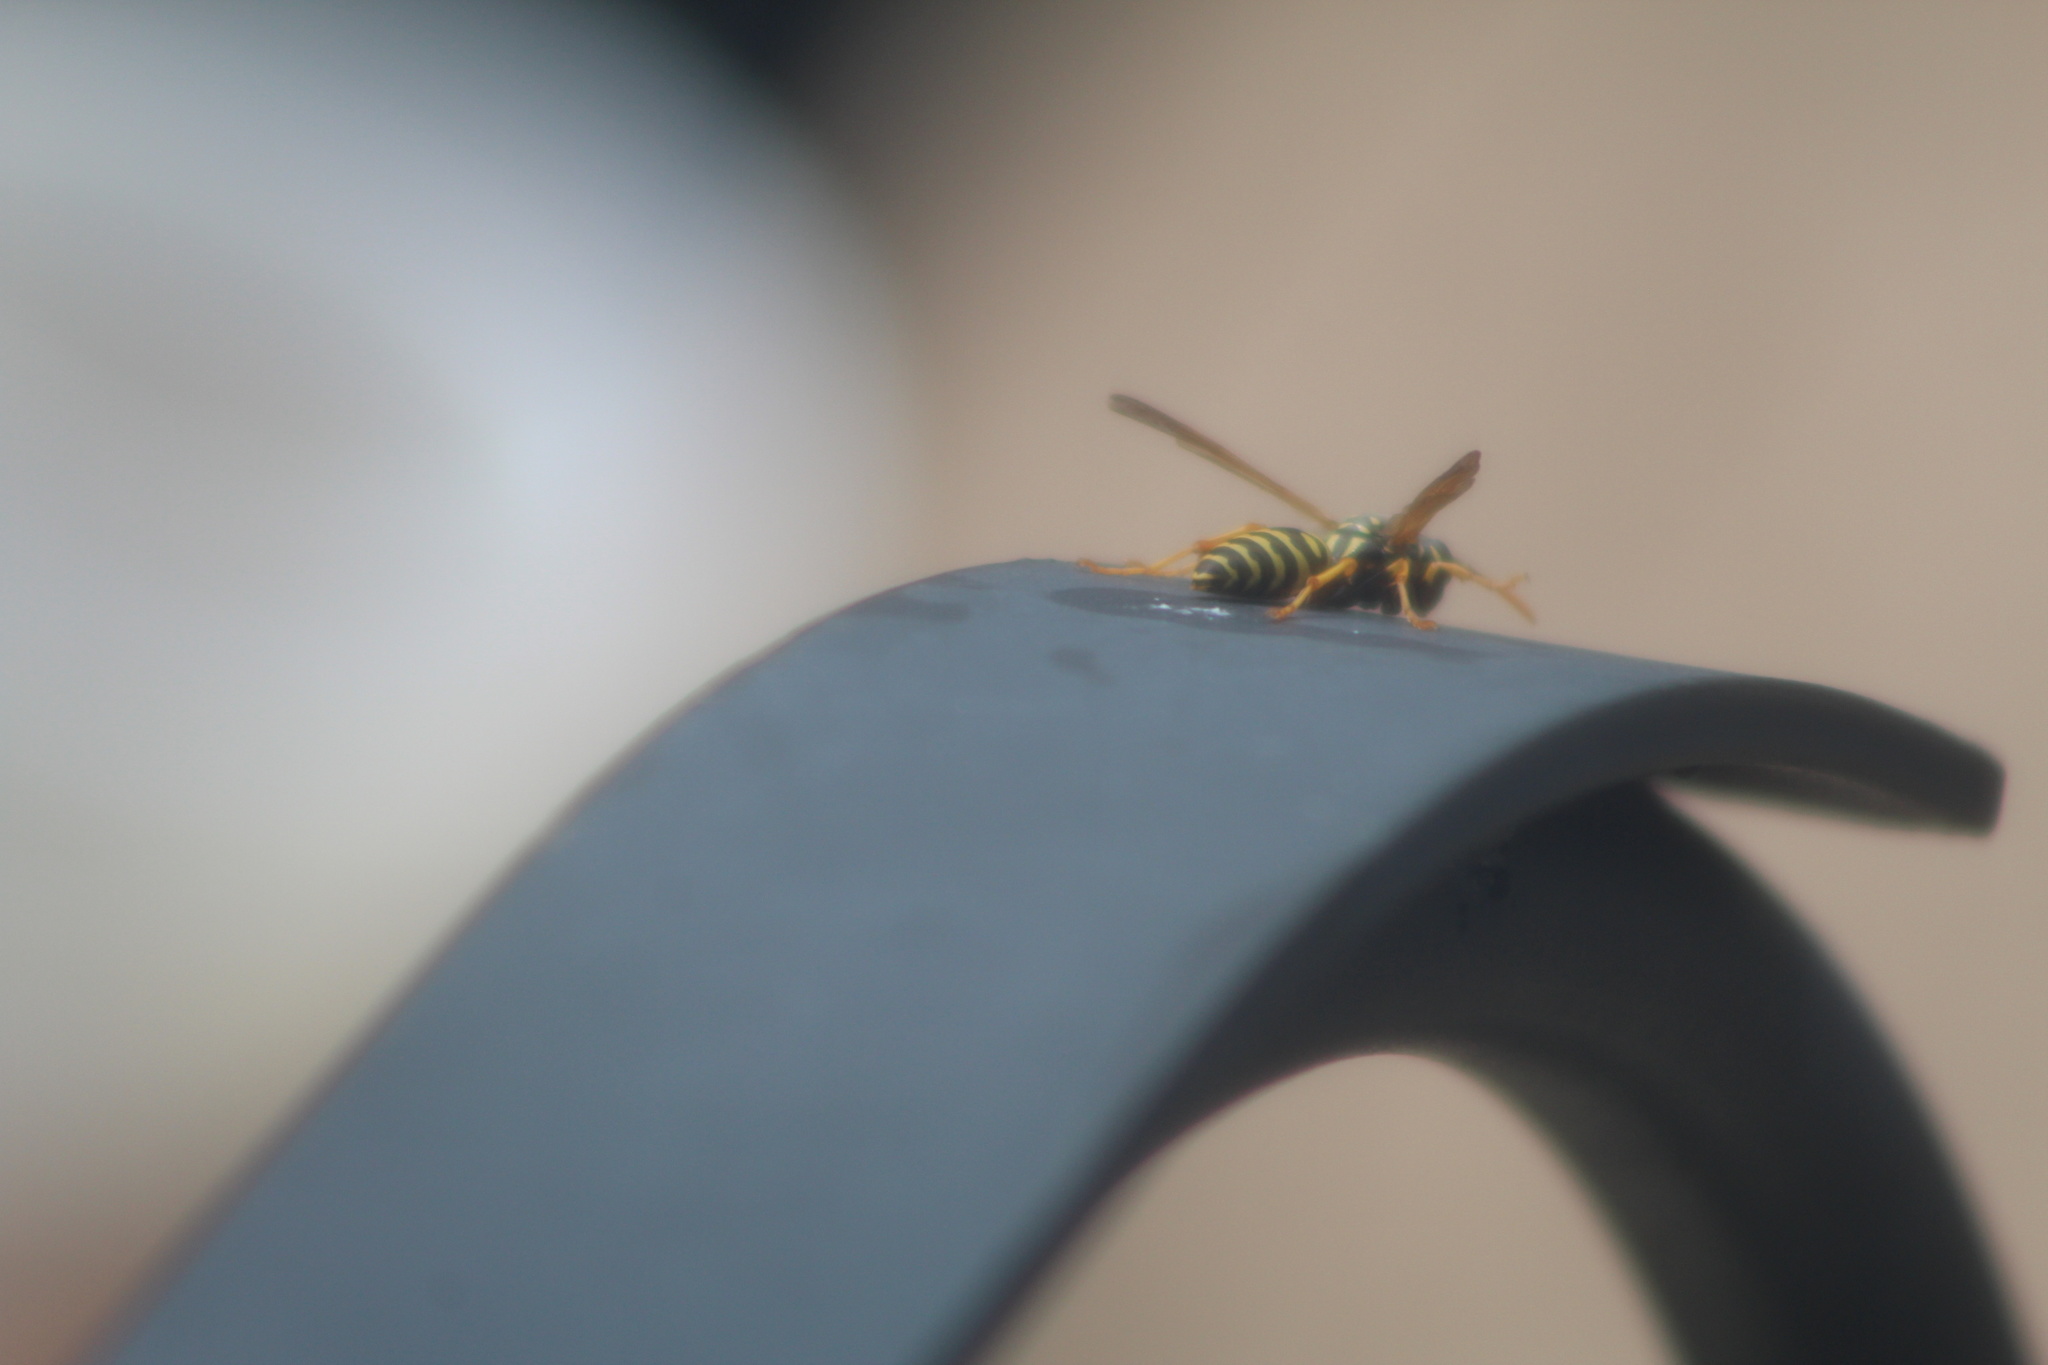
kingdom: Animalia
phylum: Arthropoda
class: Insecta
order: Hymenoptera
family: Eumenidae
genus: Polistes
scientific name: Polistes dominula
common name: Paper wasp
